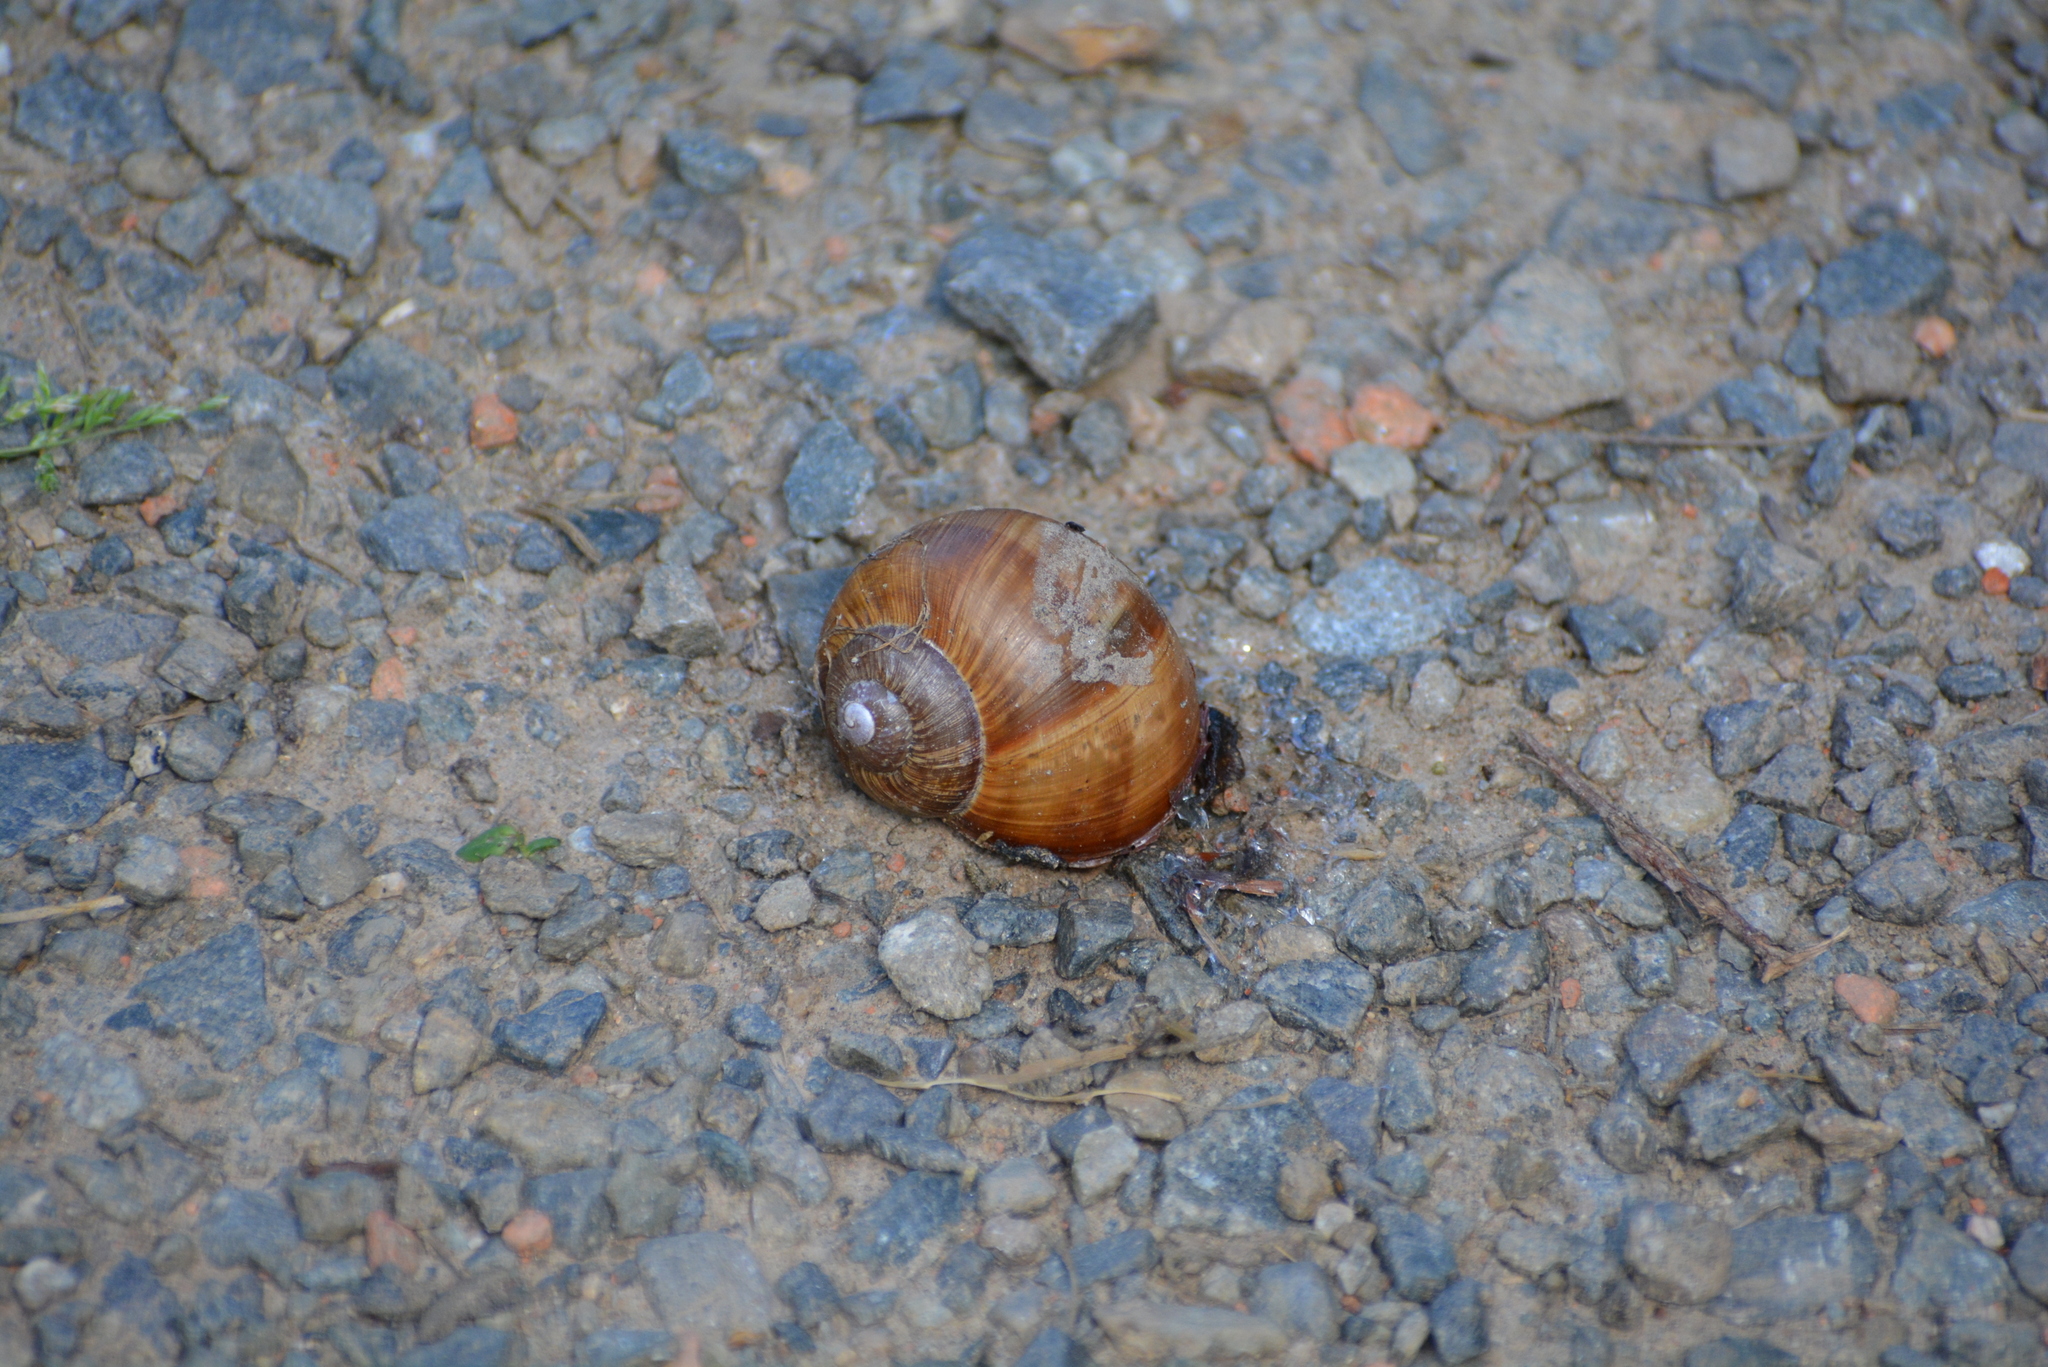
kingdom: Animalia
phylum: Mollusca
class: Gastropoda
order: Stylommatophora
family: Helicidae
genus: Helix
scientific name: Helix pomatia
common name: Roman snail
